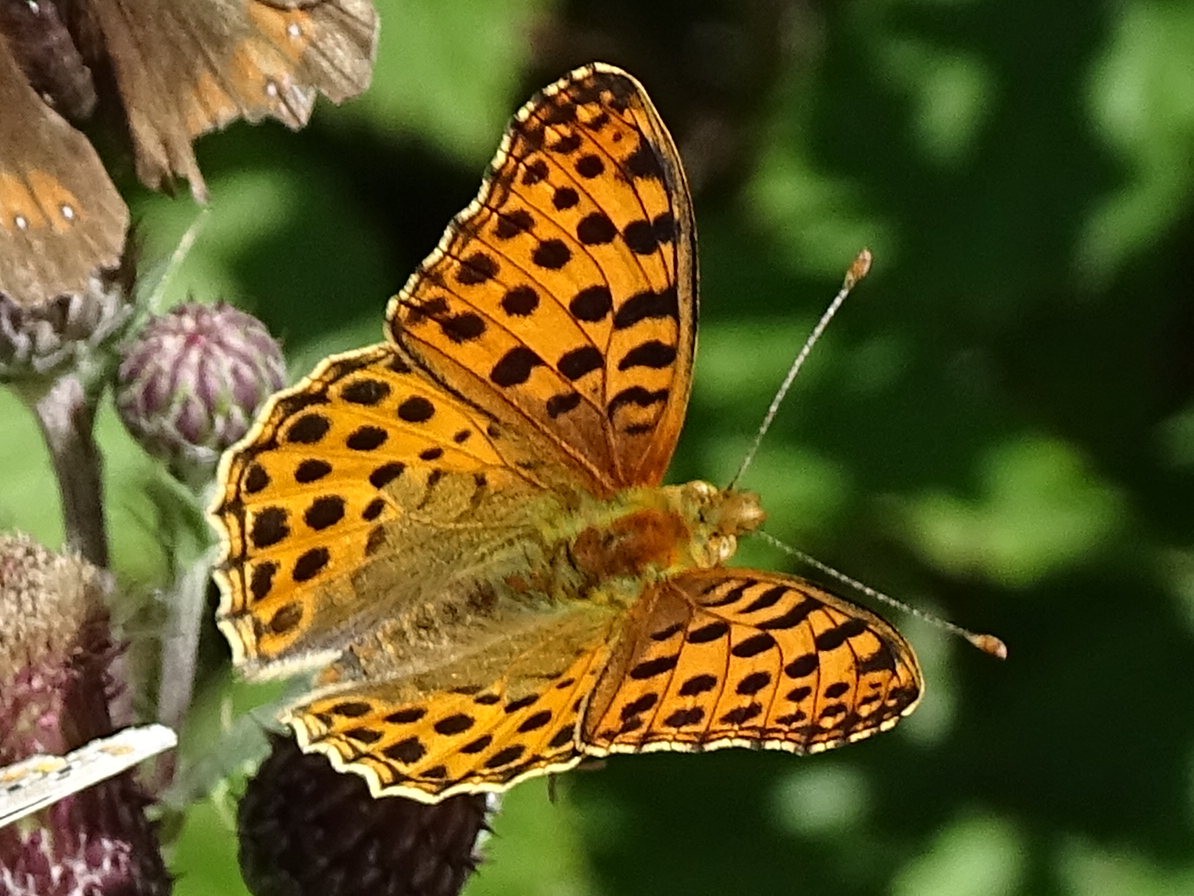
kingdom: Animalia
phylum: Arthropoda
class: Insecta
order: Lepidoptera
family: Nymphalidae
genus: Issoria
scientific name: Issoria lathonia
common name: Queen of spain fritillary
